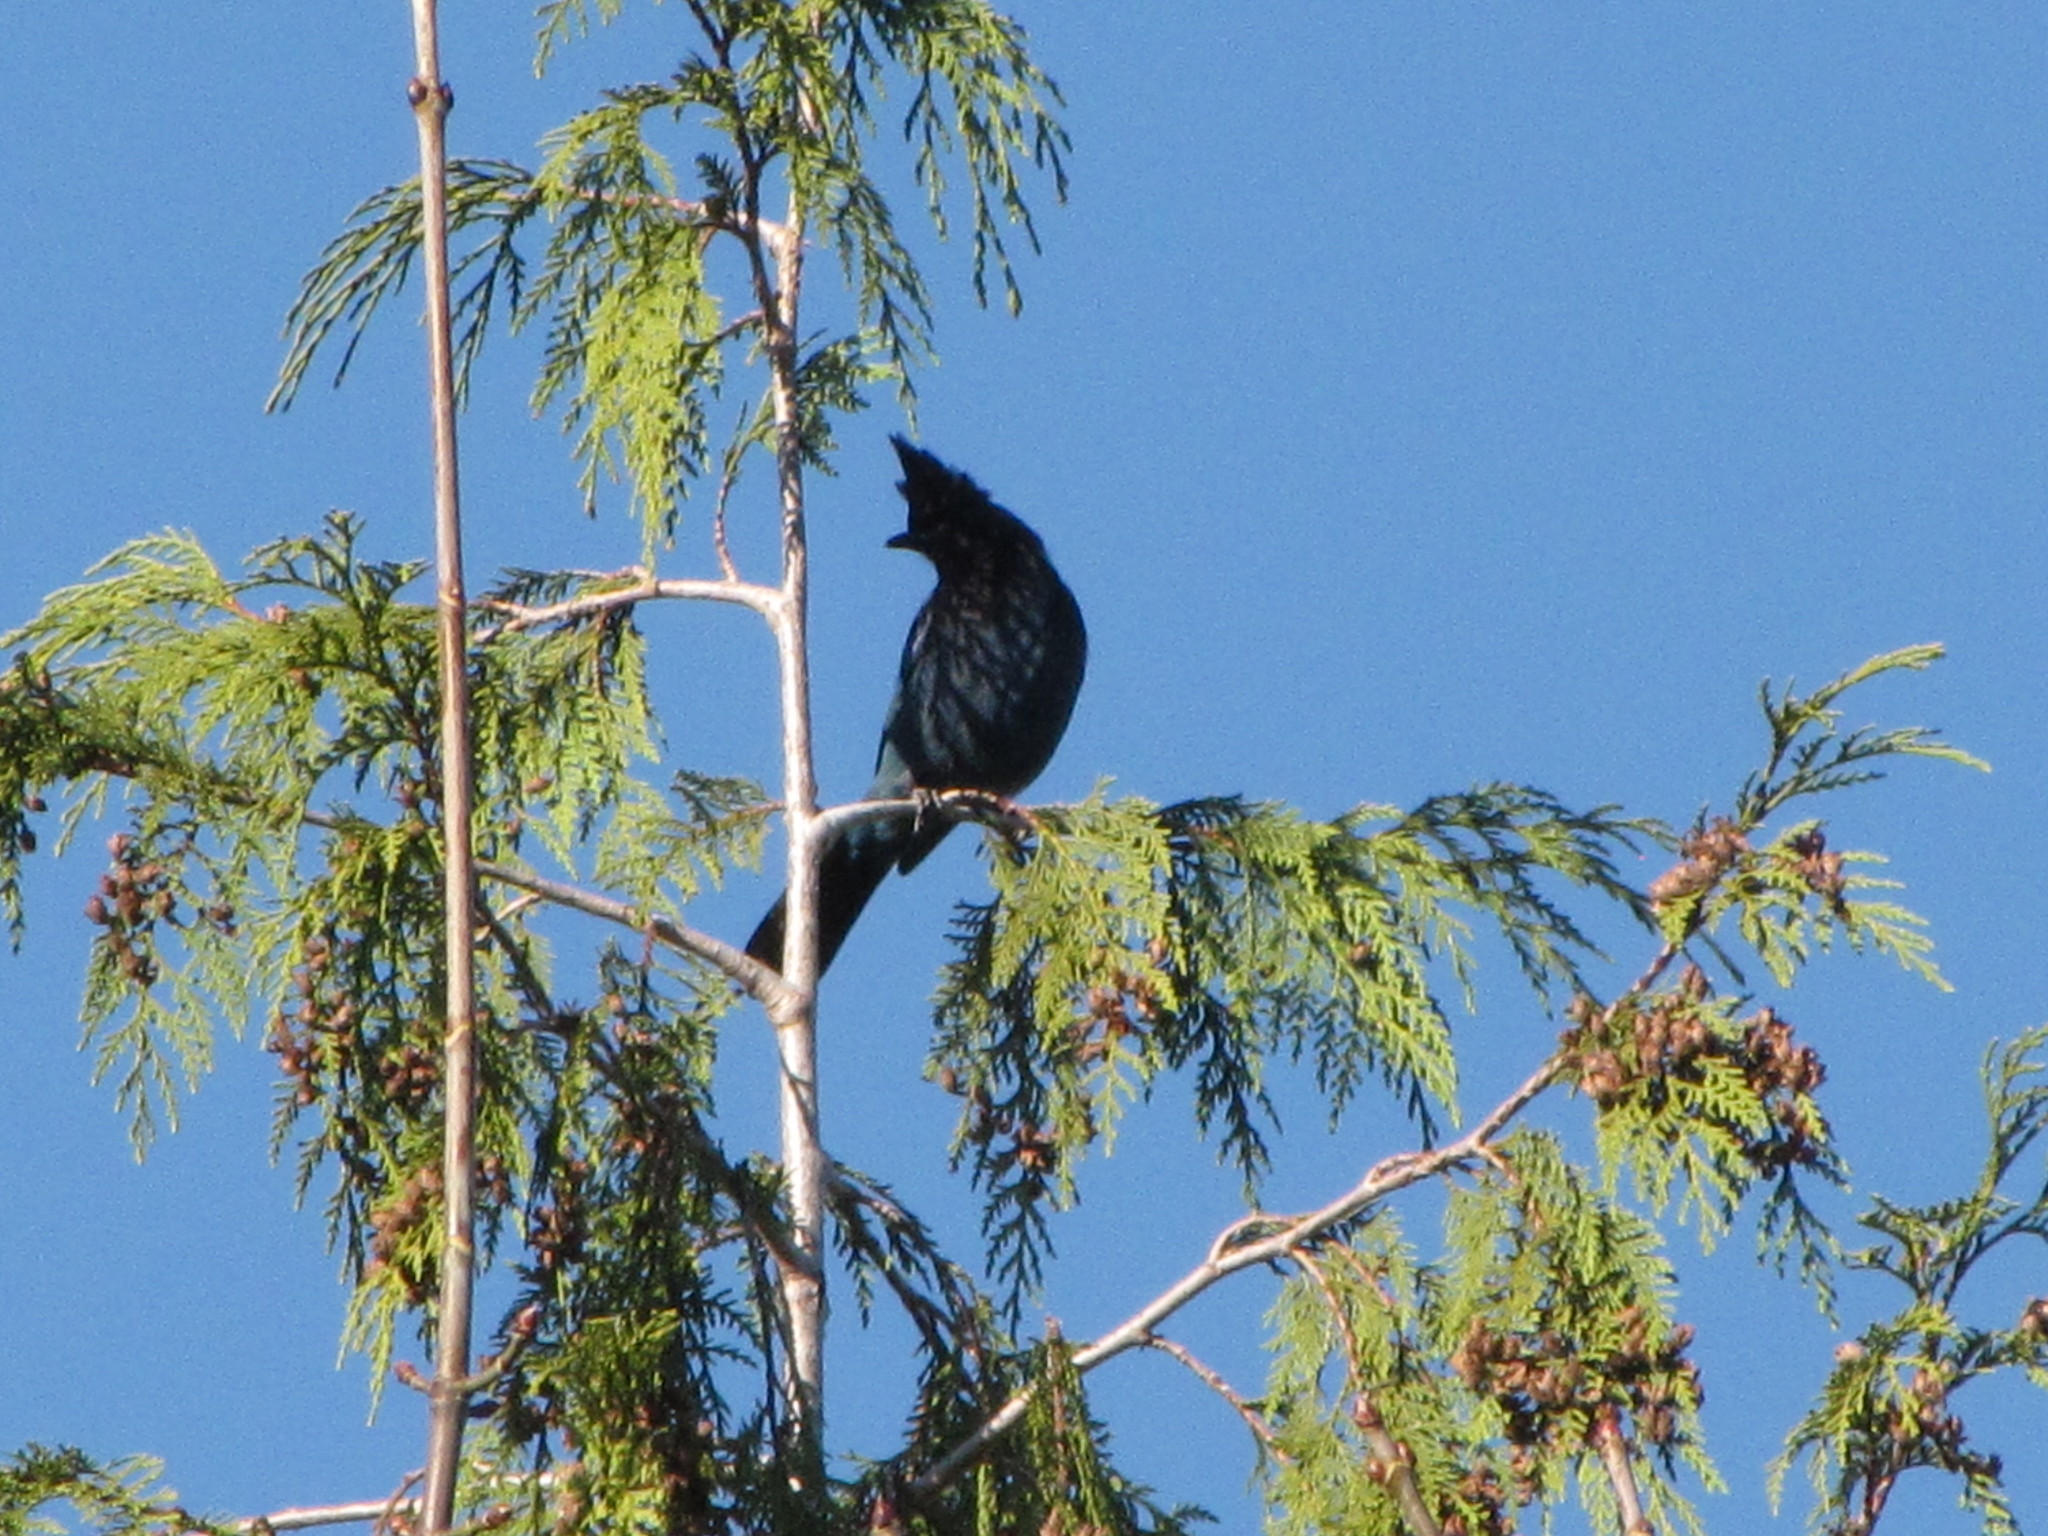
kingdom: Animalia
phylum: Chordata
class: Aves
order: Passeriformes
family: Corvidae
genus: Cyanocitta
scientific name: Cyanocitta stelleri
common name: Steller's jay
